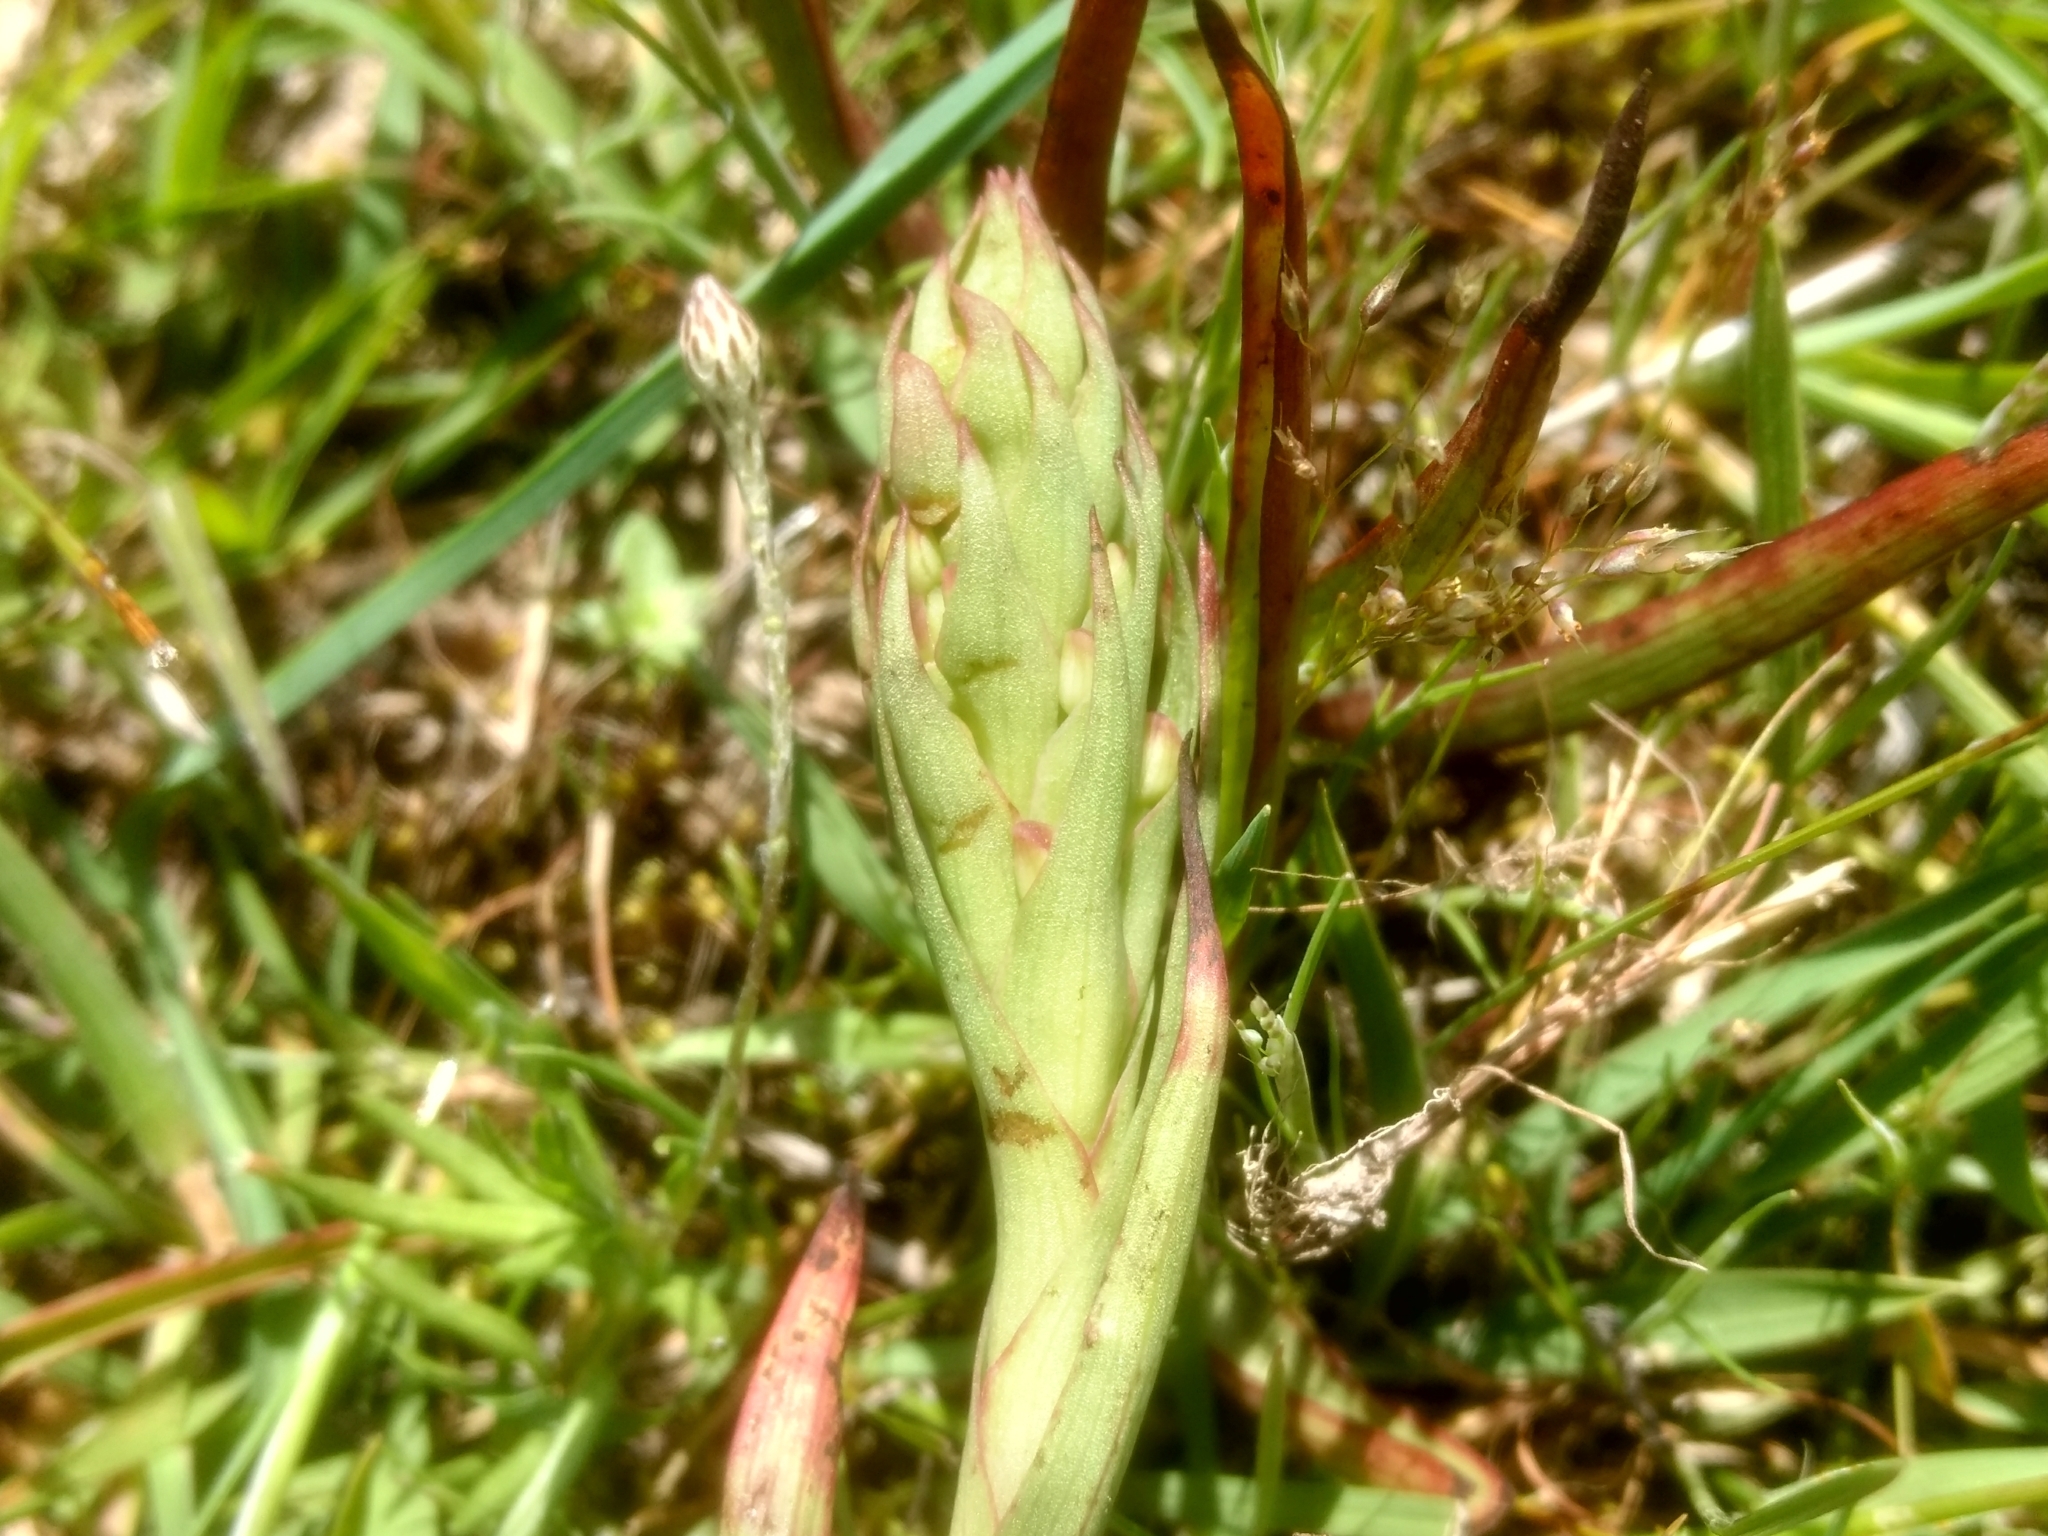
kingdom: Plantae
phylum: Tracheophyta
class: Liliopsida
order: Asparagales
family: Orchidaceae
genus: Disa
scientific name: Disa bracteata
